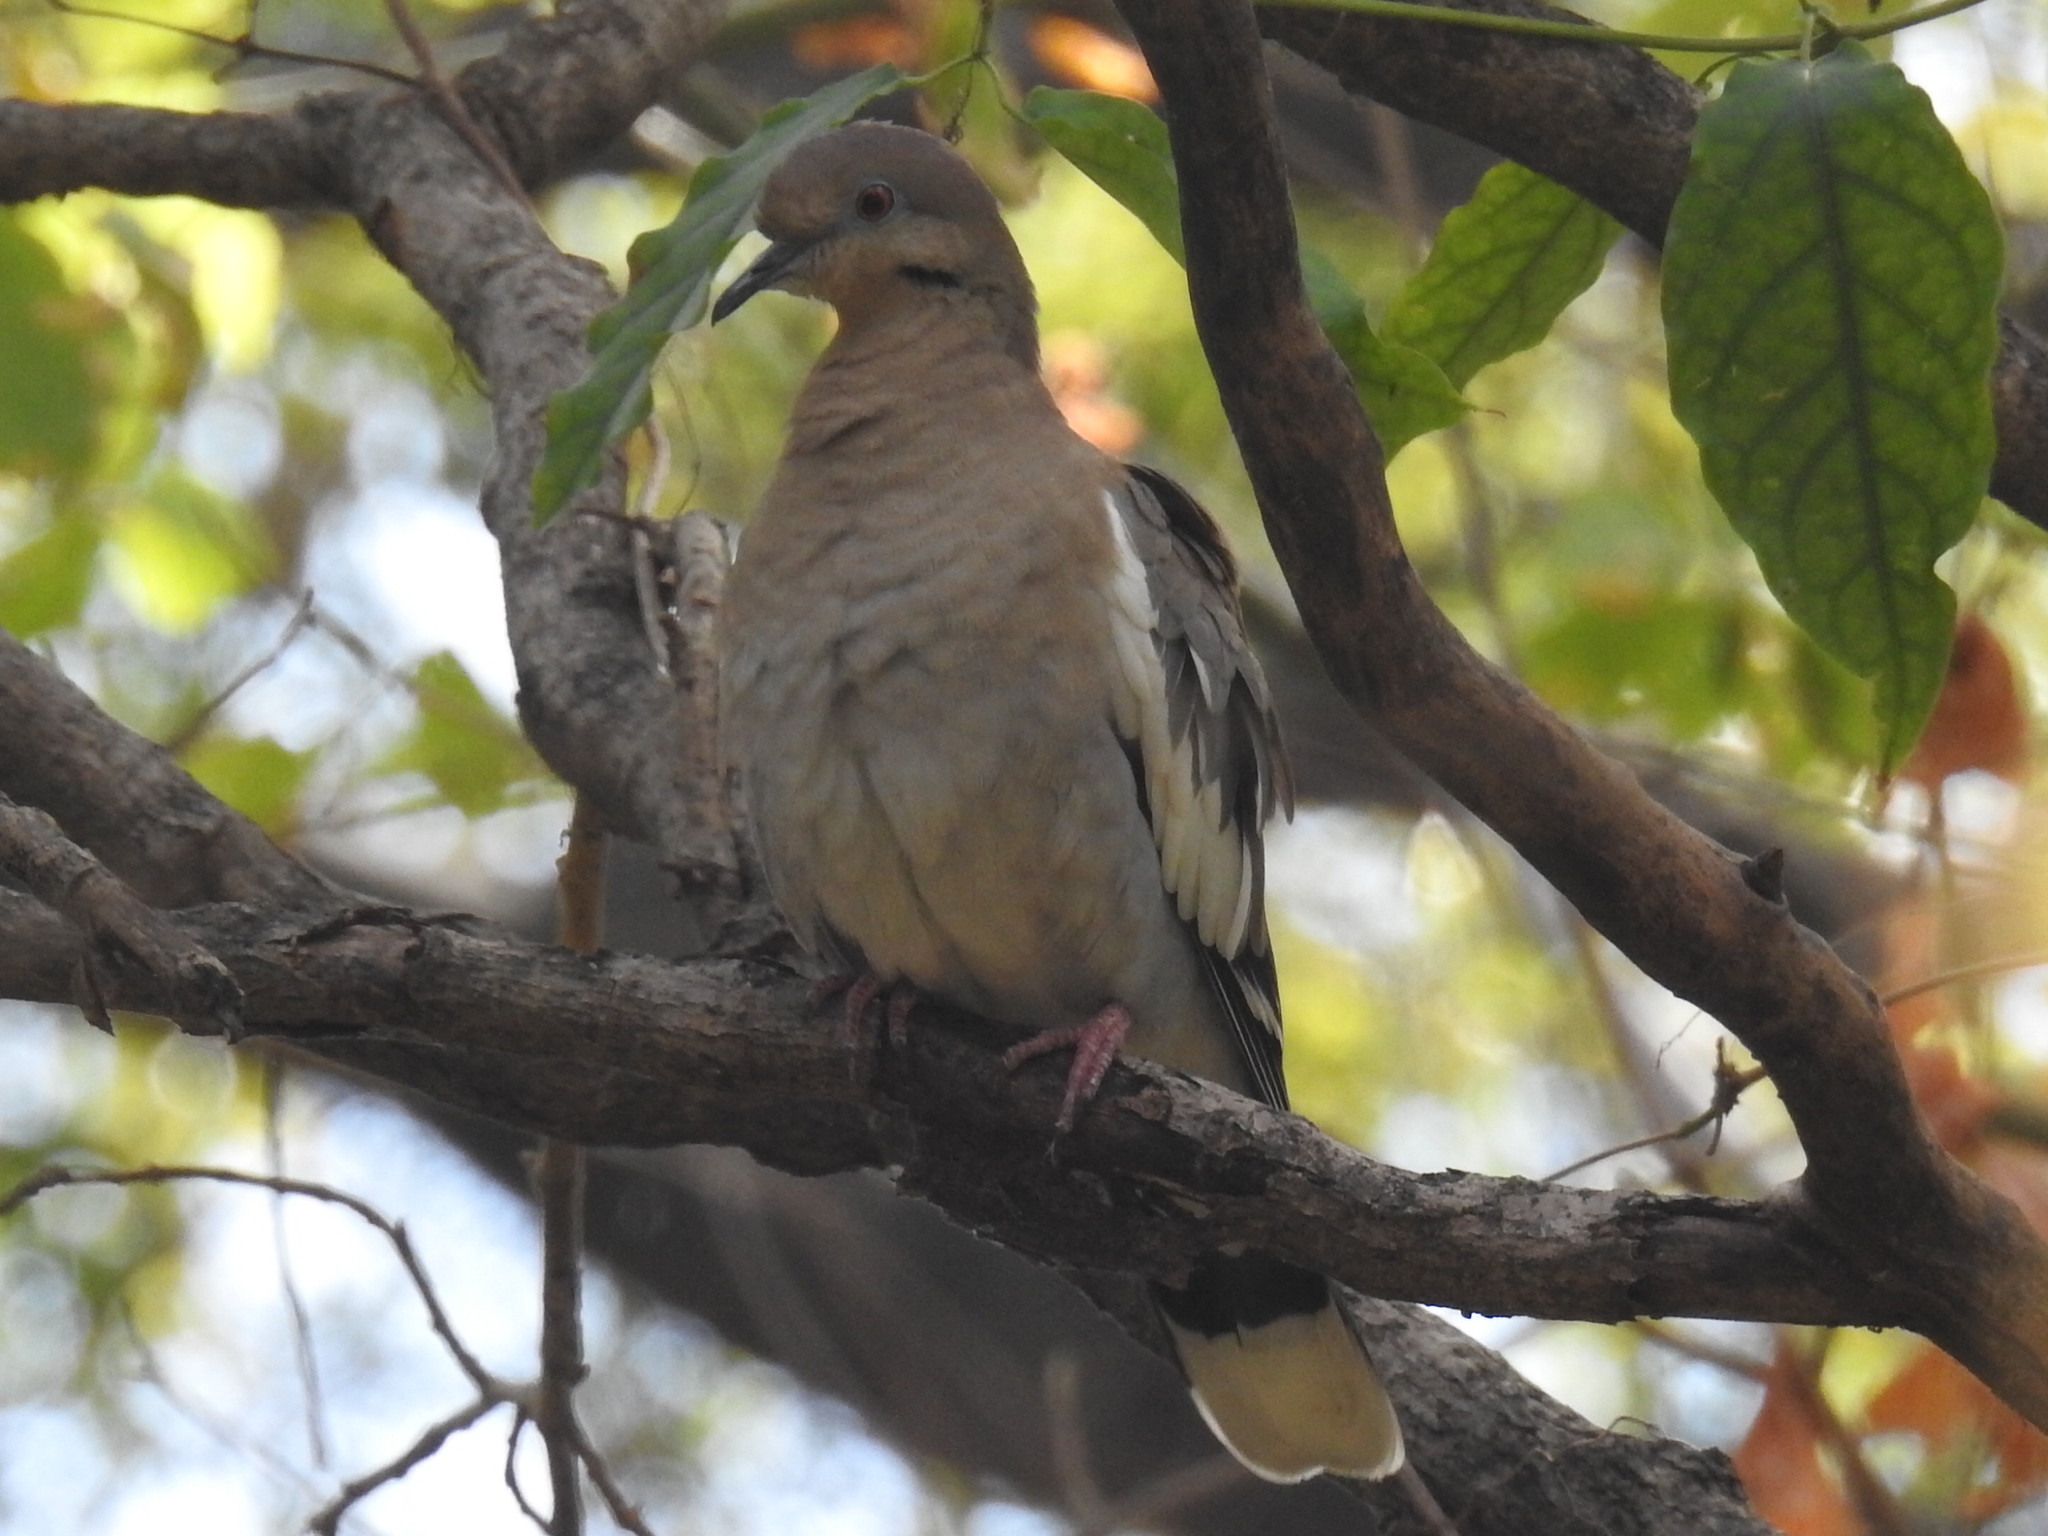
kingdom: Animalia
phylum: Chordata
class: Aves
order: Columbiformes
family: Columbidae
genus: Zenaida
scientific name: Zenaida asiatica
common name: White-winged dove
